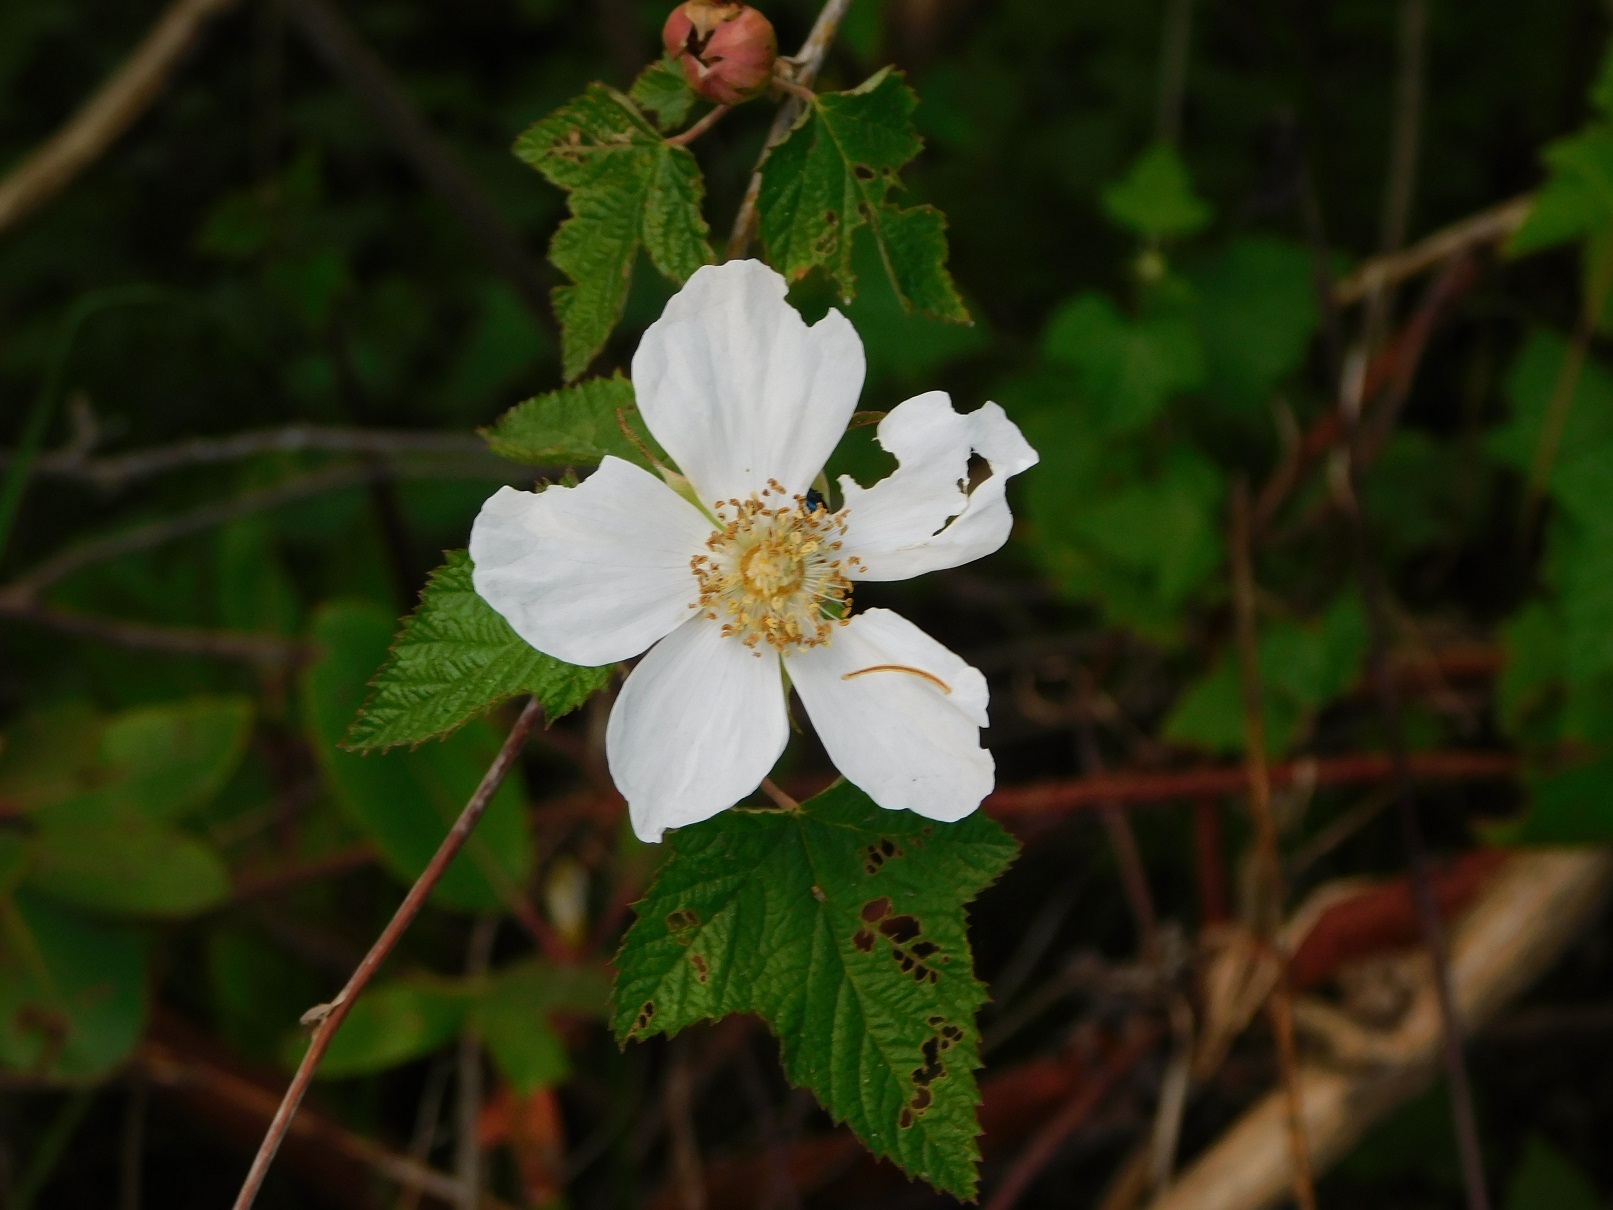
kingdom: Plantae
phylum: Tracheophyta
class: Magnoliopsida
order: Rosales
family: Rosaceae
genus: Rubus
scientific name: Rubus trilobus
